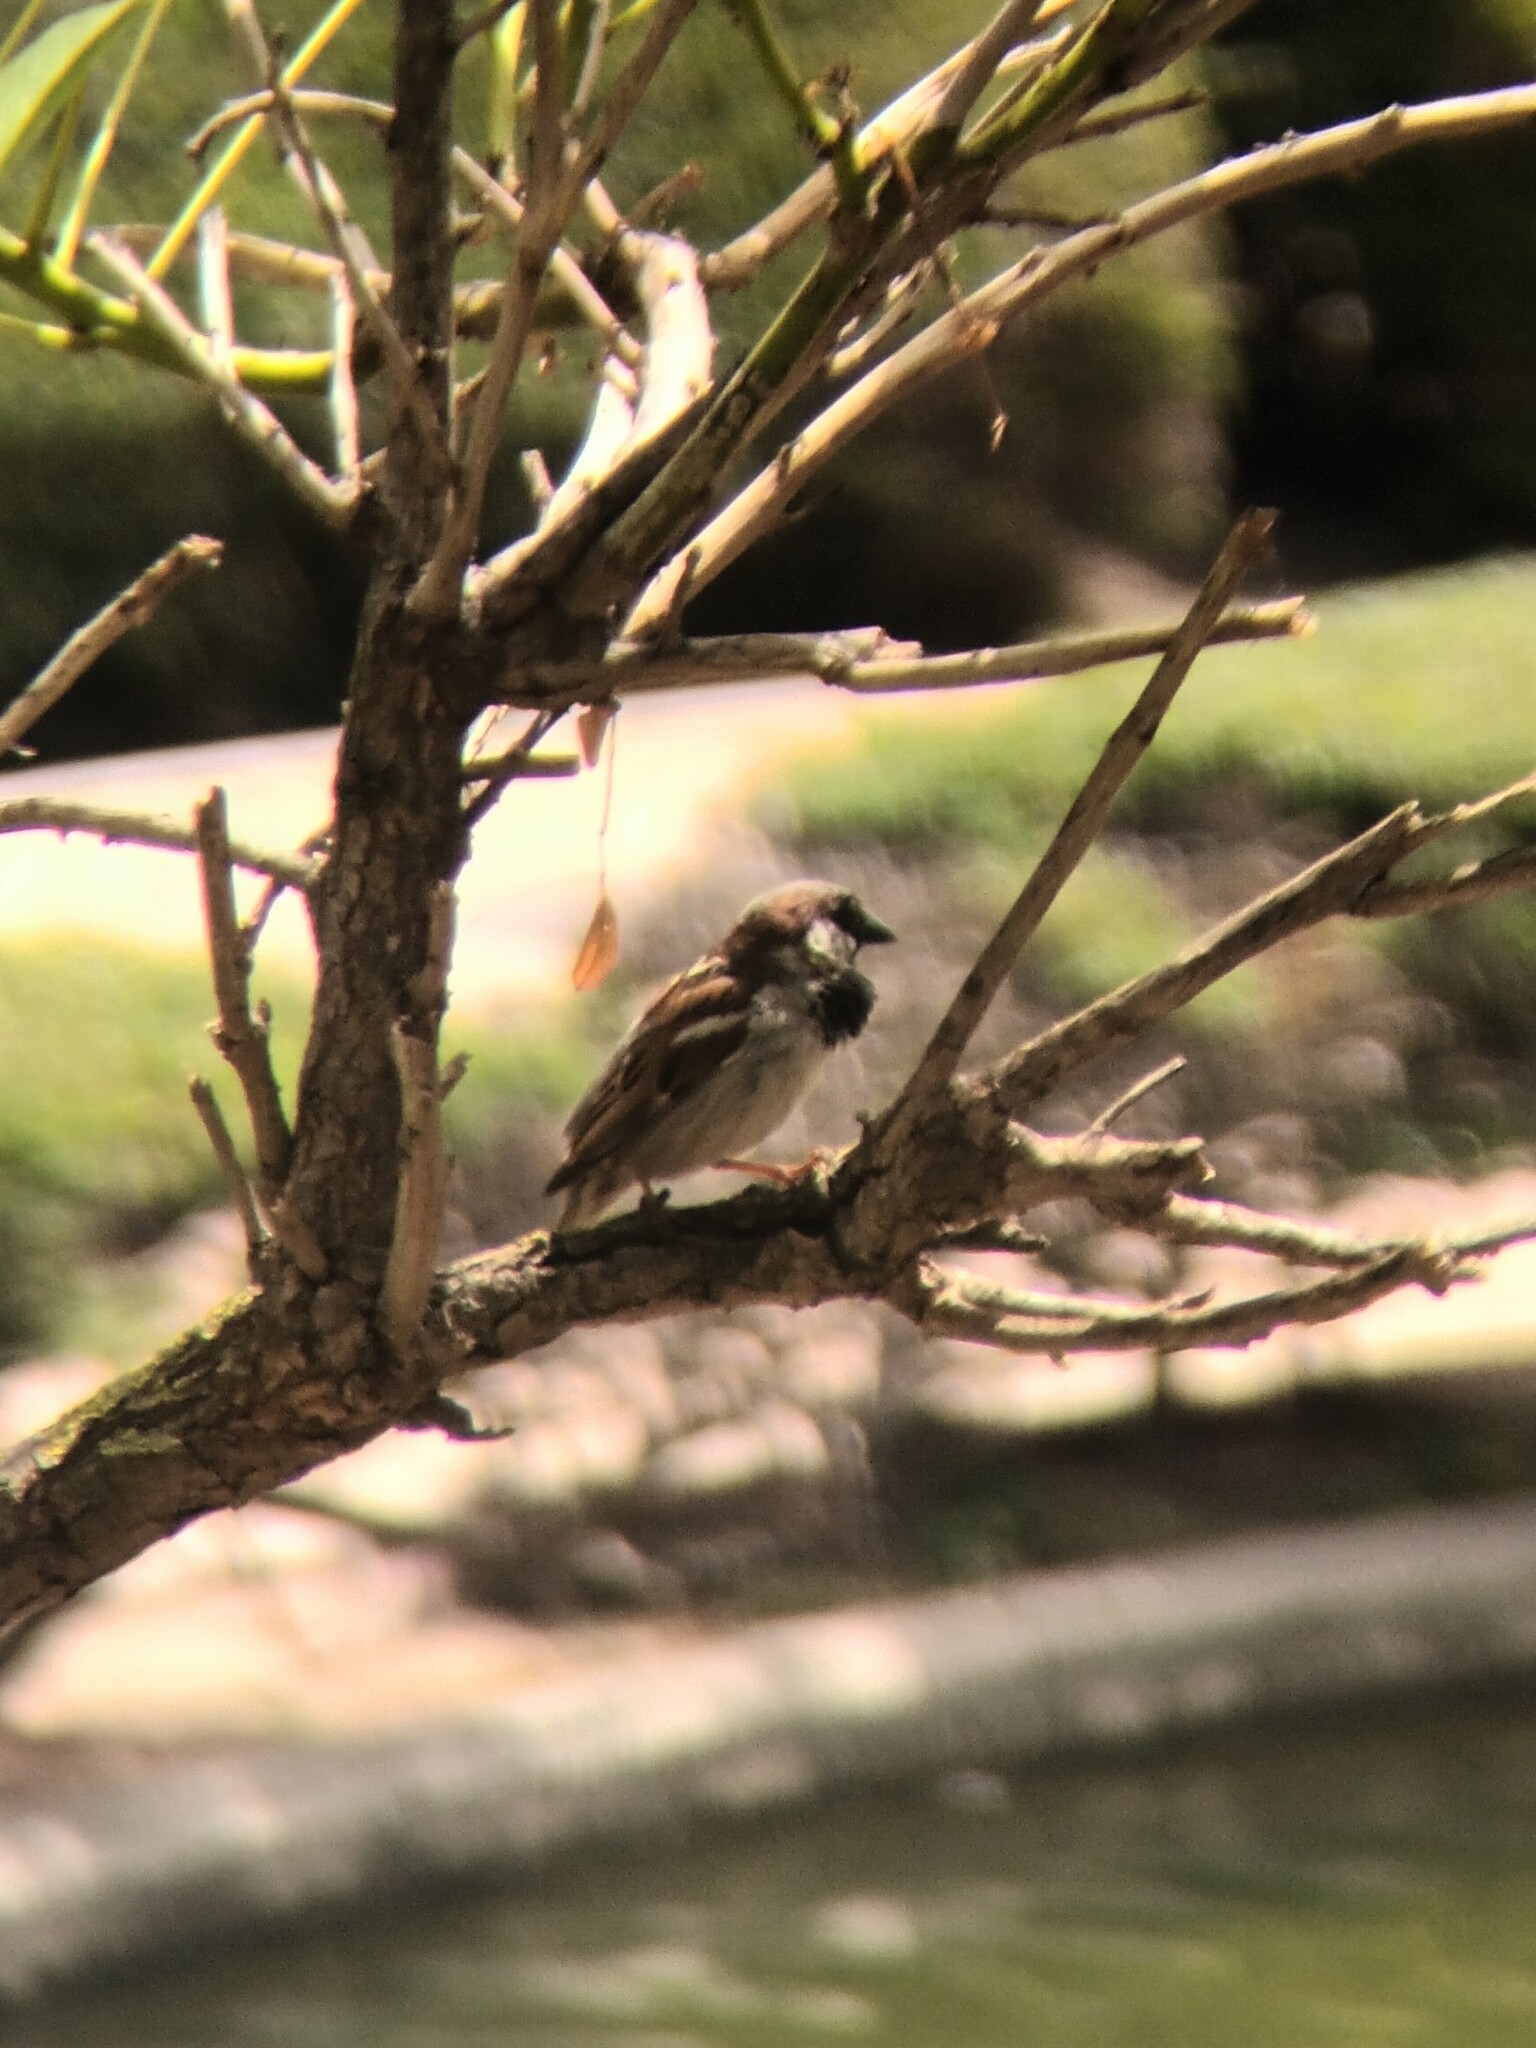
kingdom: Animalia
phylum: Chordata
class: Aves
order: Passeriformes
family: Passeridae
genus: Passer
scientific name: Passer domesticus
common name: House sparrow
